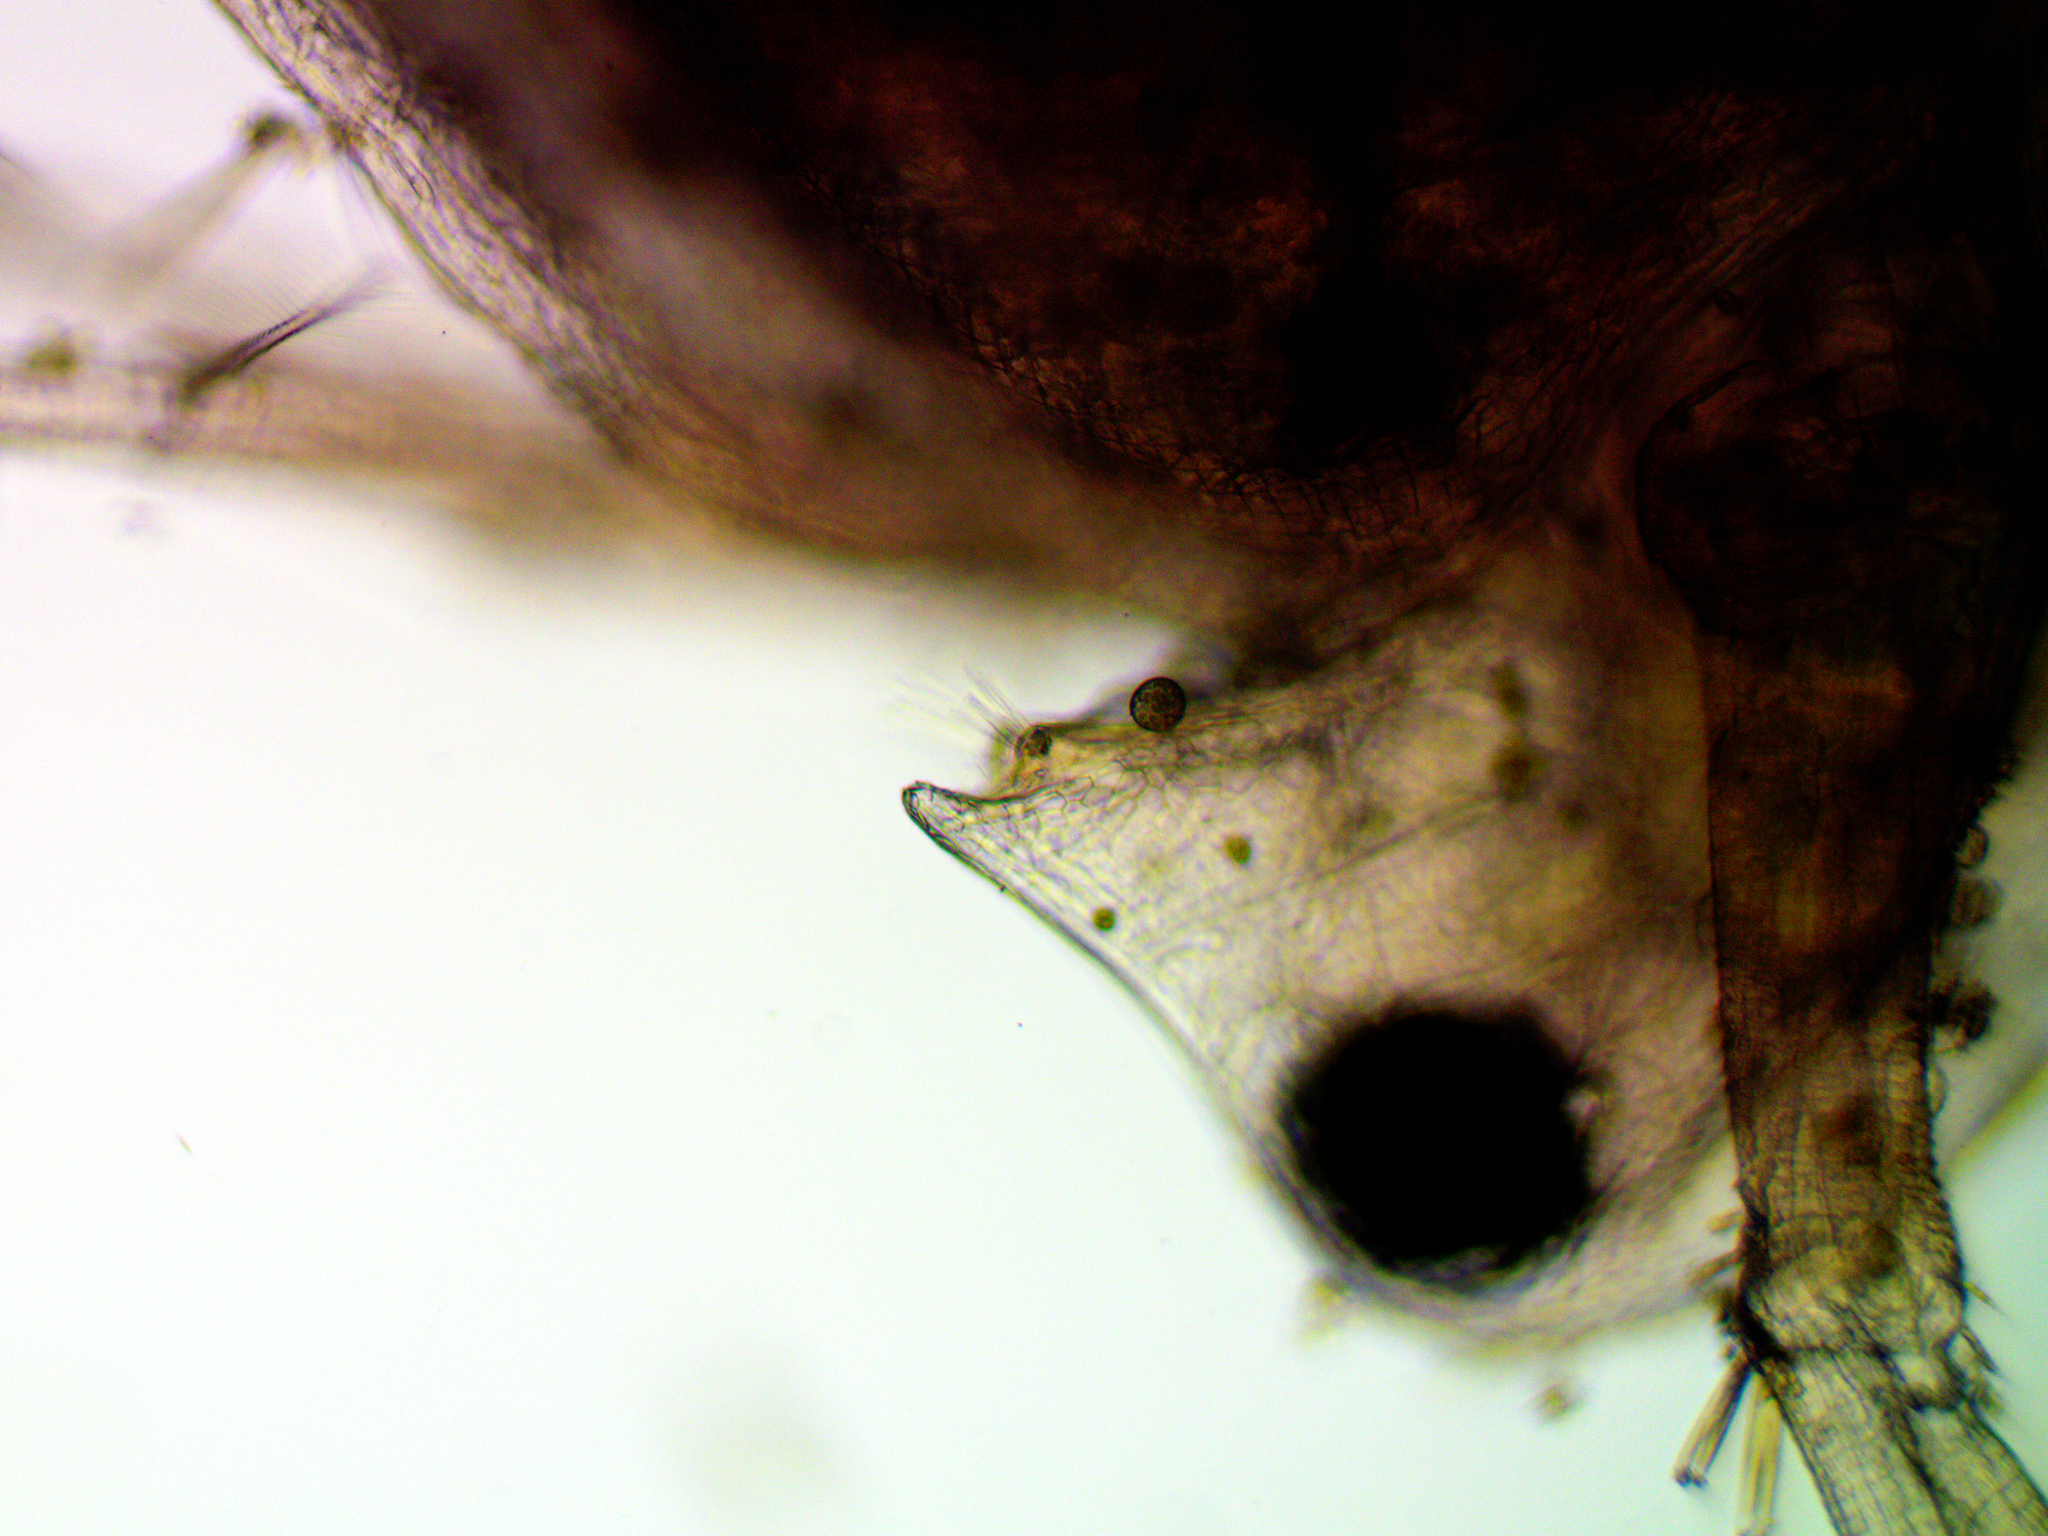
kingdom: Animalia
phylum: Arthropoda
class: Branchiopoda
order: Diplostraca
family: Daphniidae
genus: Daphnia
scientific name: Daphnia pulex
